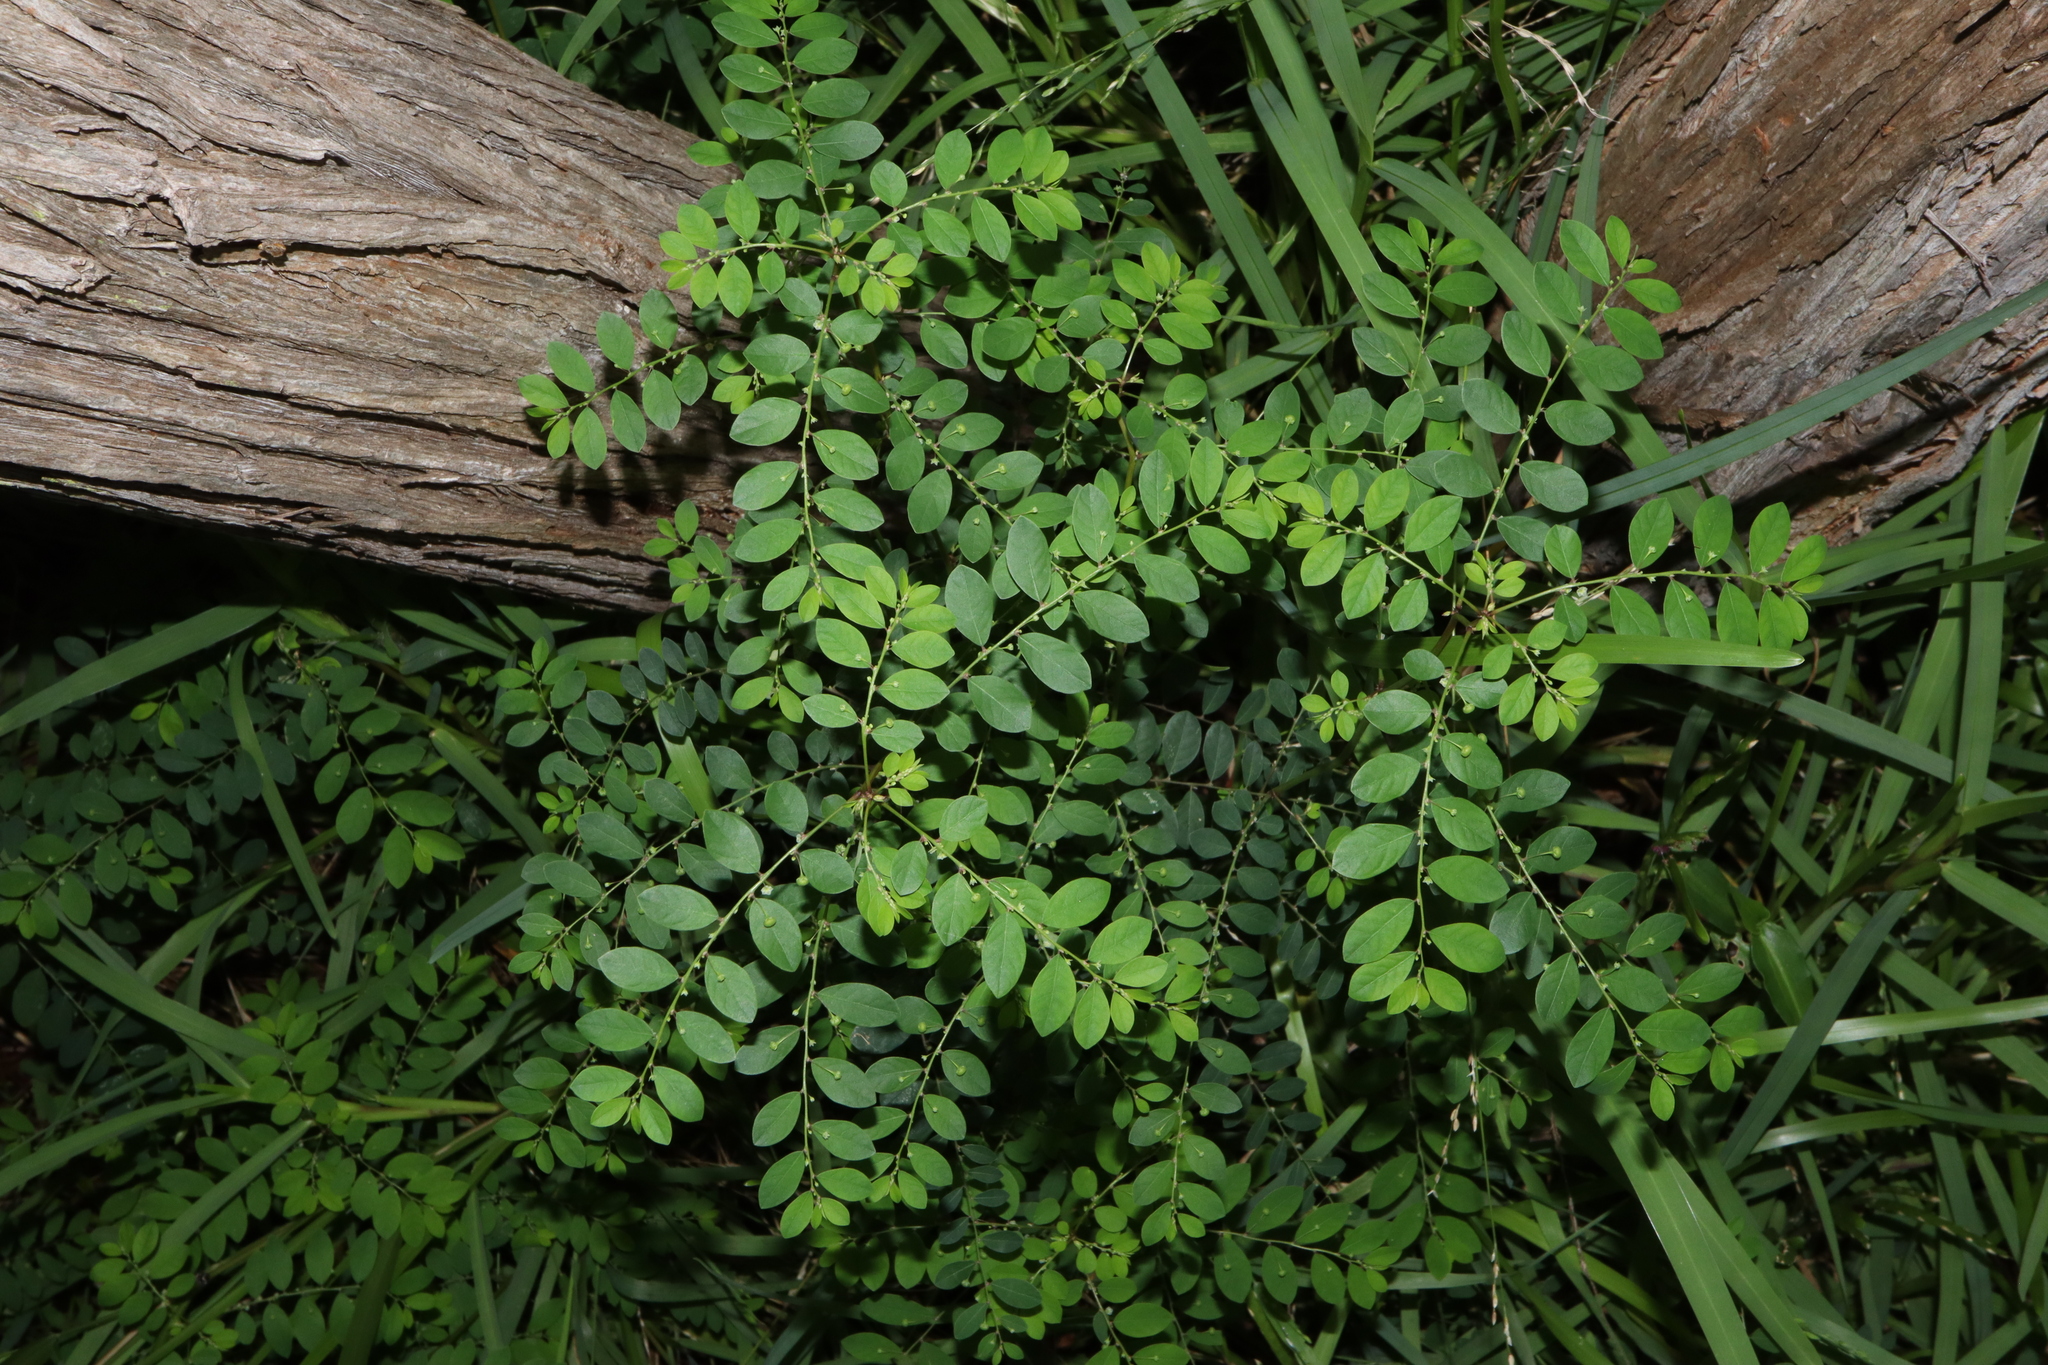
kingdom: Plantae
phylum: Tracheophyta
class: Magnoliopsida
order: Malpighiales
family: Phyllanthaceae
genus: Phyllanthus
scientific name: Phyllanthus tenellus
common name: Mascarene island leaf-flower
